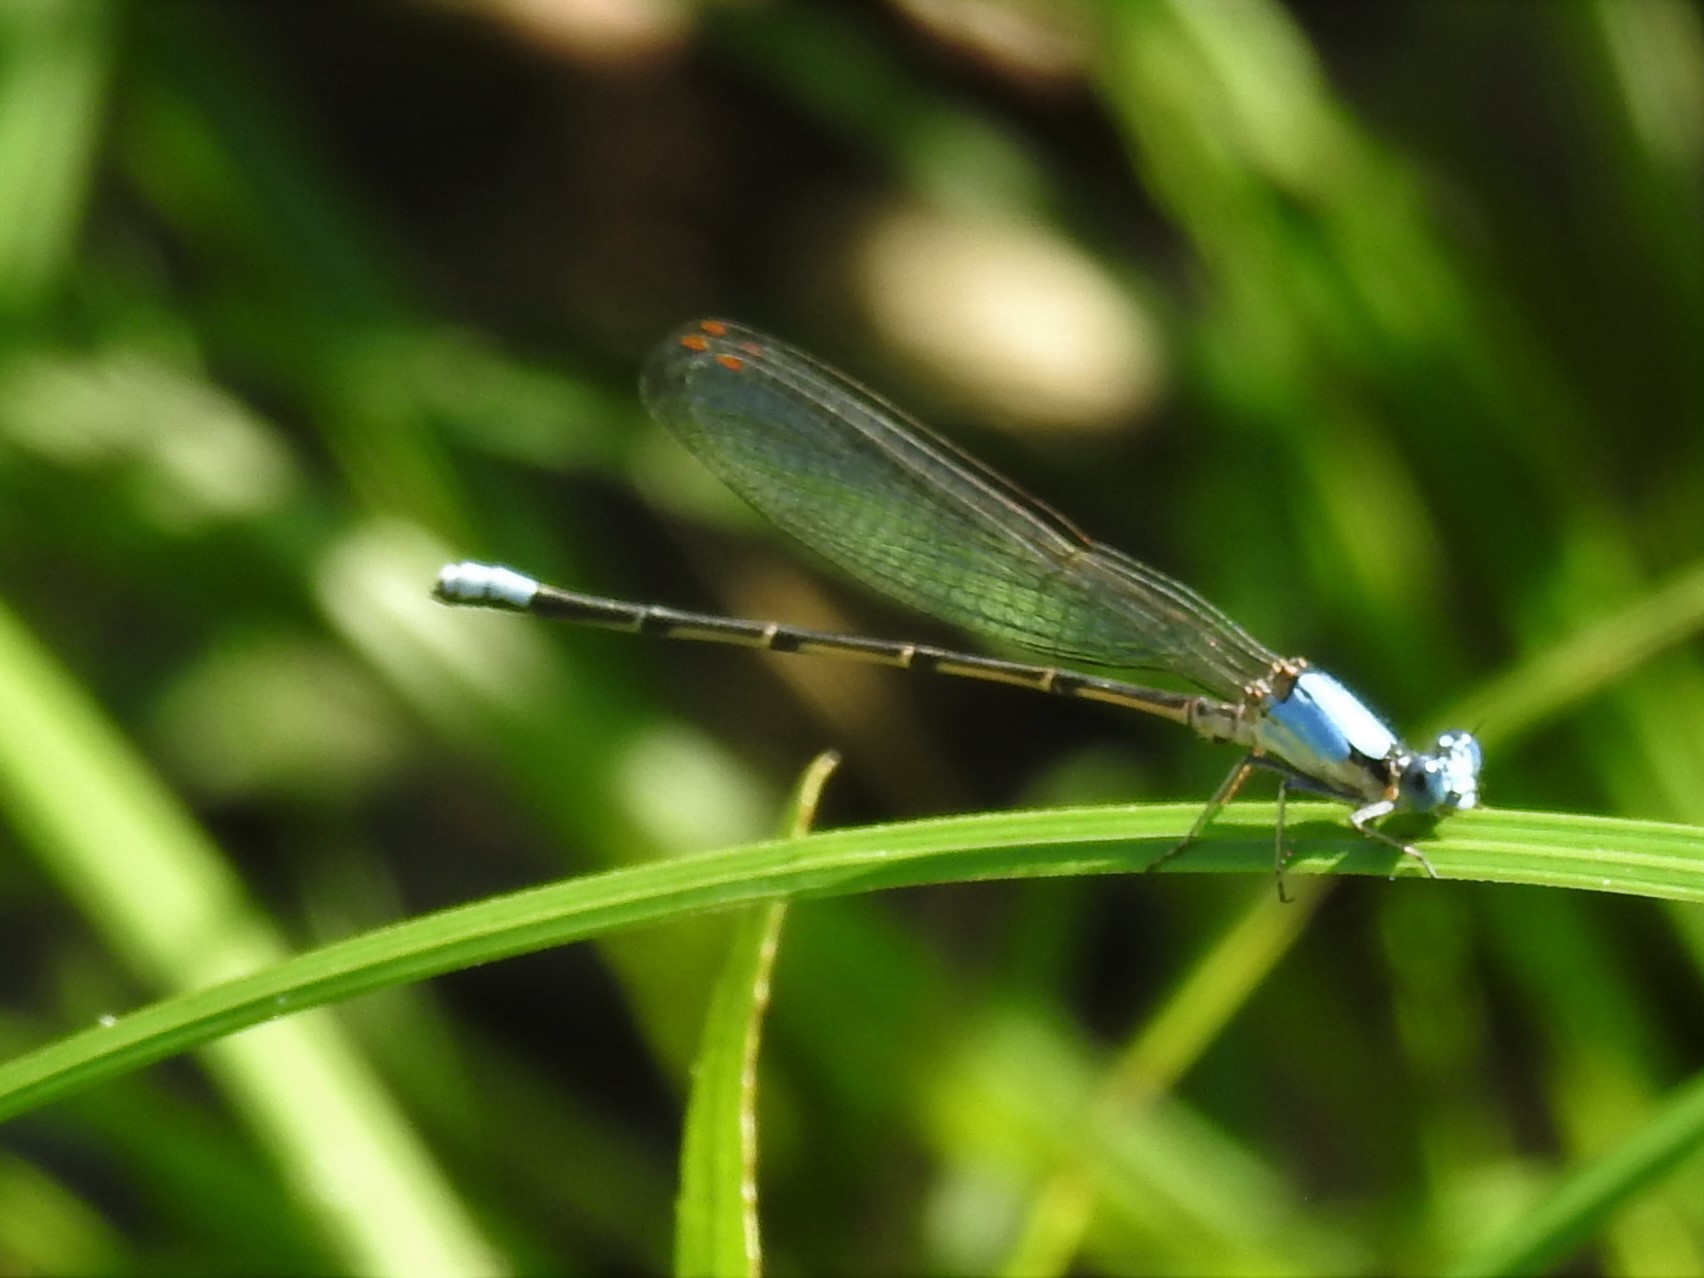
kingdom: Animalia
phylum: Arthropoda
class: Insecta
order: Odonata
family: Coenagrionidae
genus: Argia
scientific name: Argia apicalis
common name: Blue-fronted dancer
